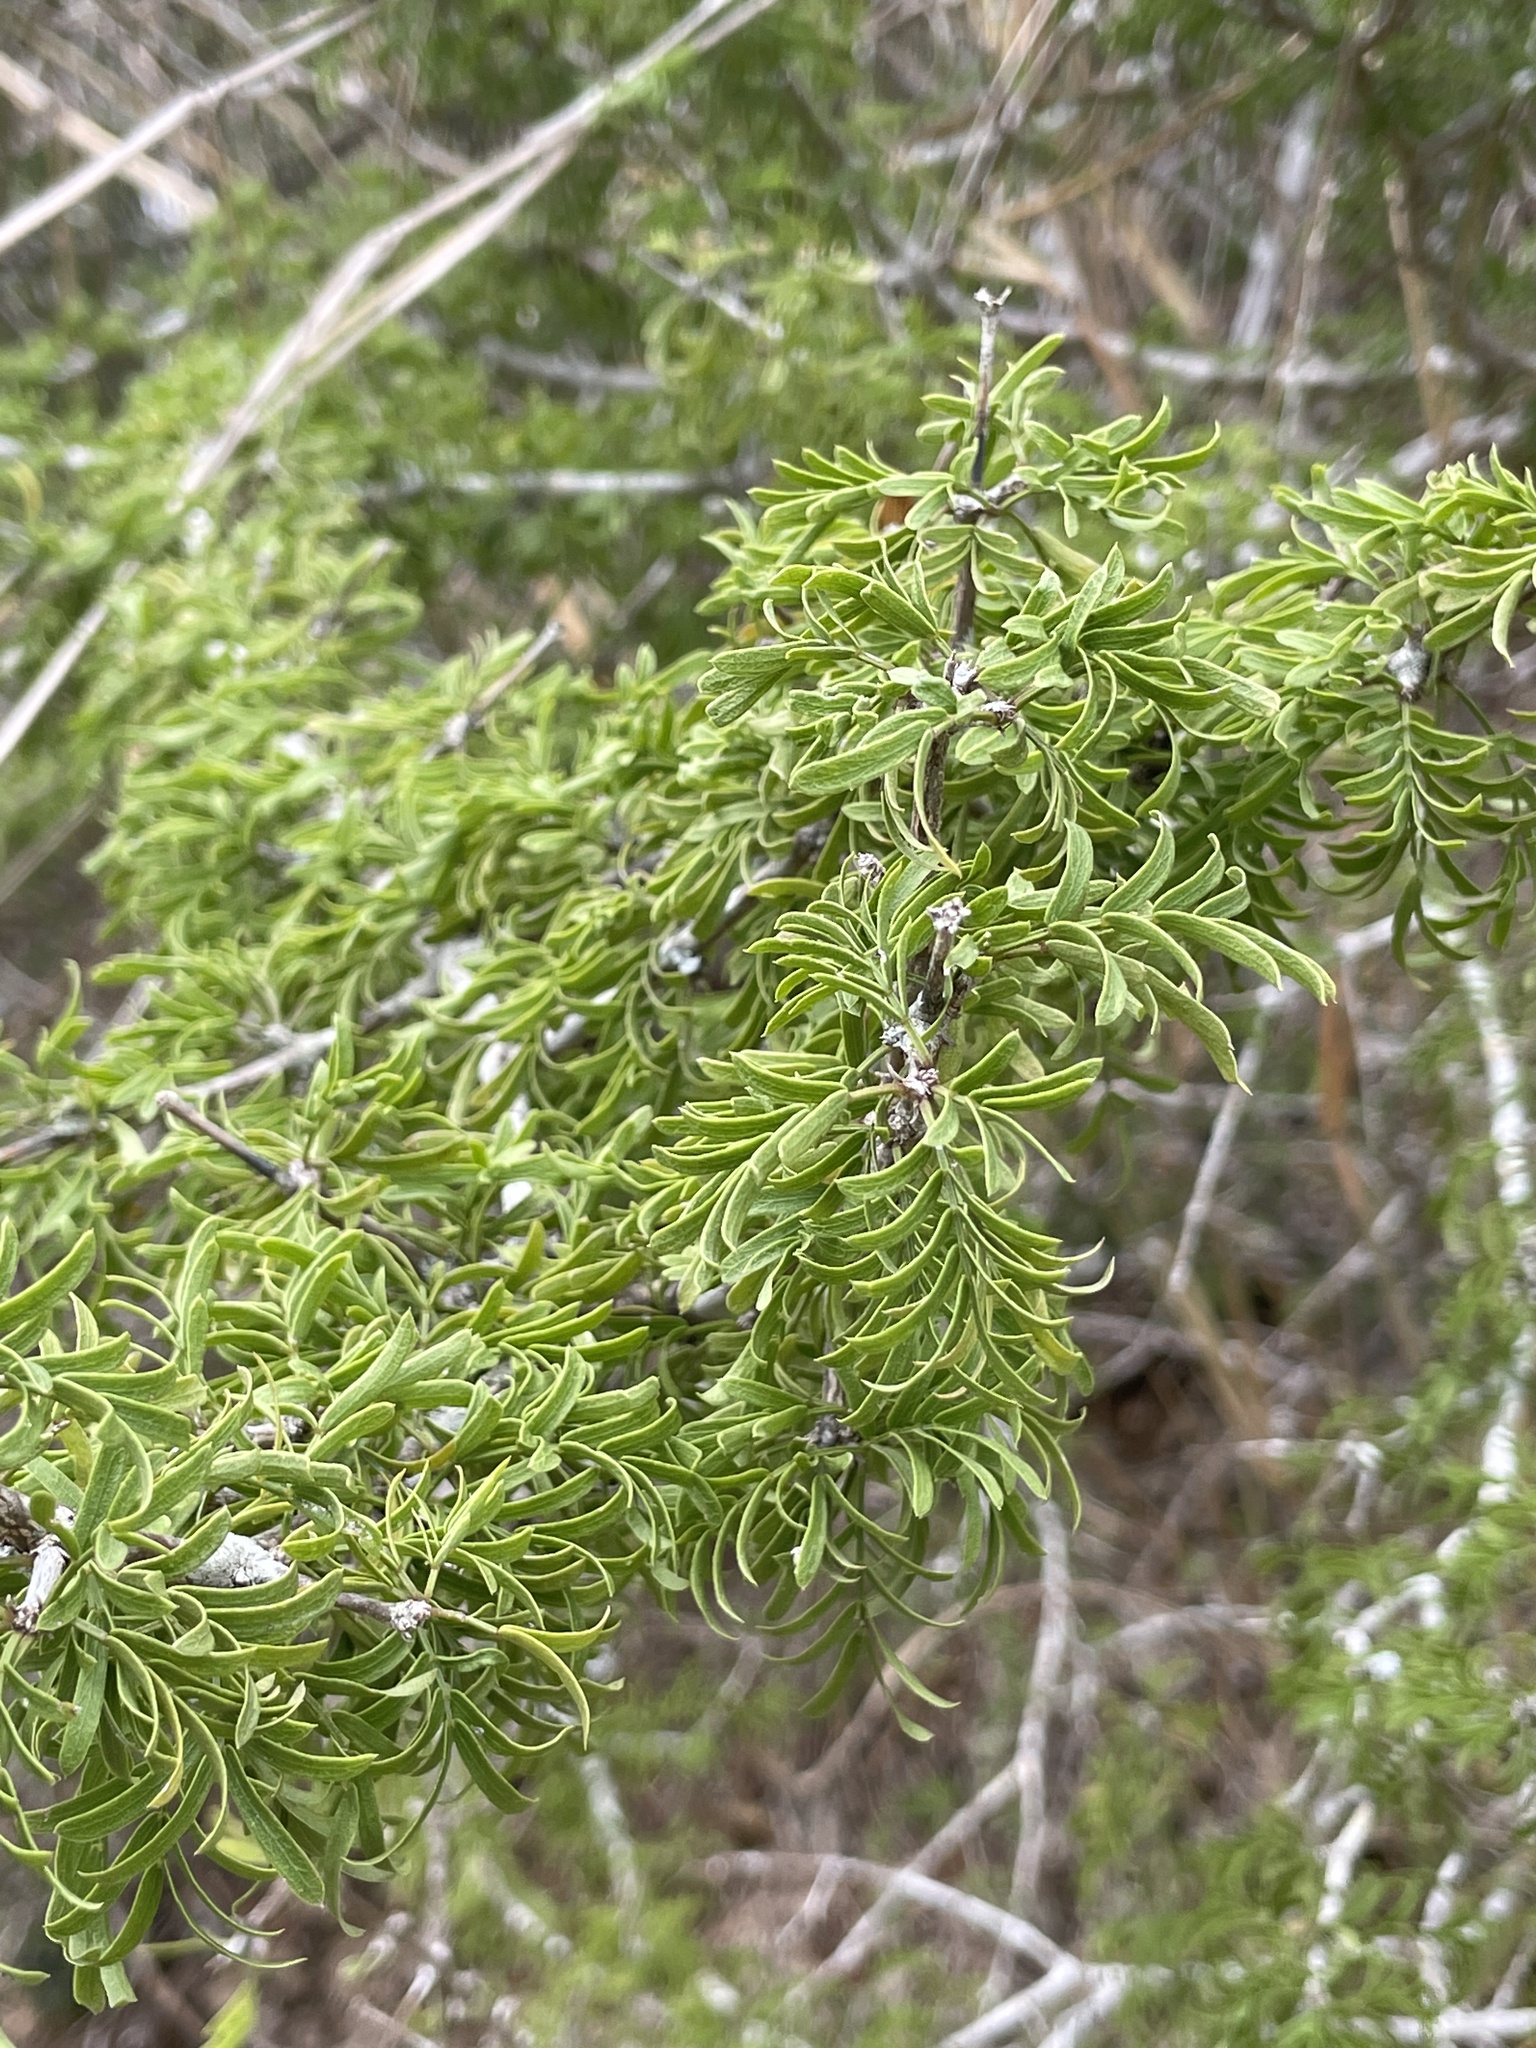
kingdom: Plantae
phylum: Tracheophyta
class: Magnoliopsida
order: Zygophyllales
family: Zygophyllaceae
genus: Porlieria
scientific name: Porlieria angustifolia
